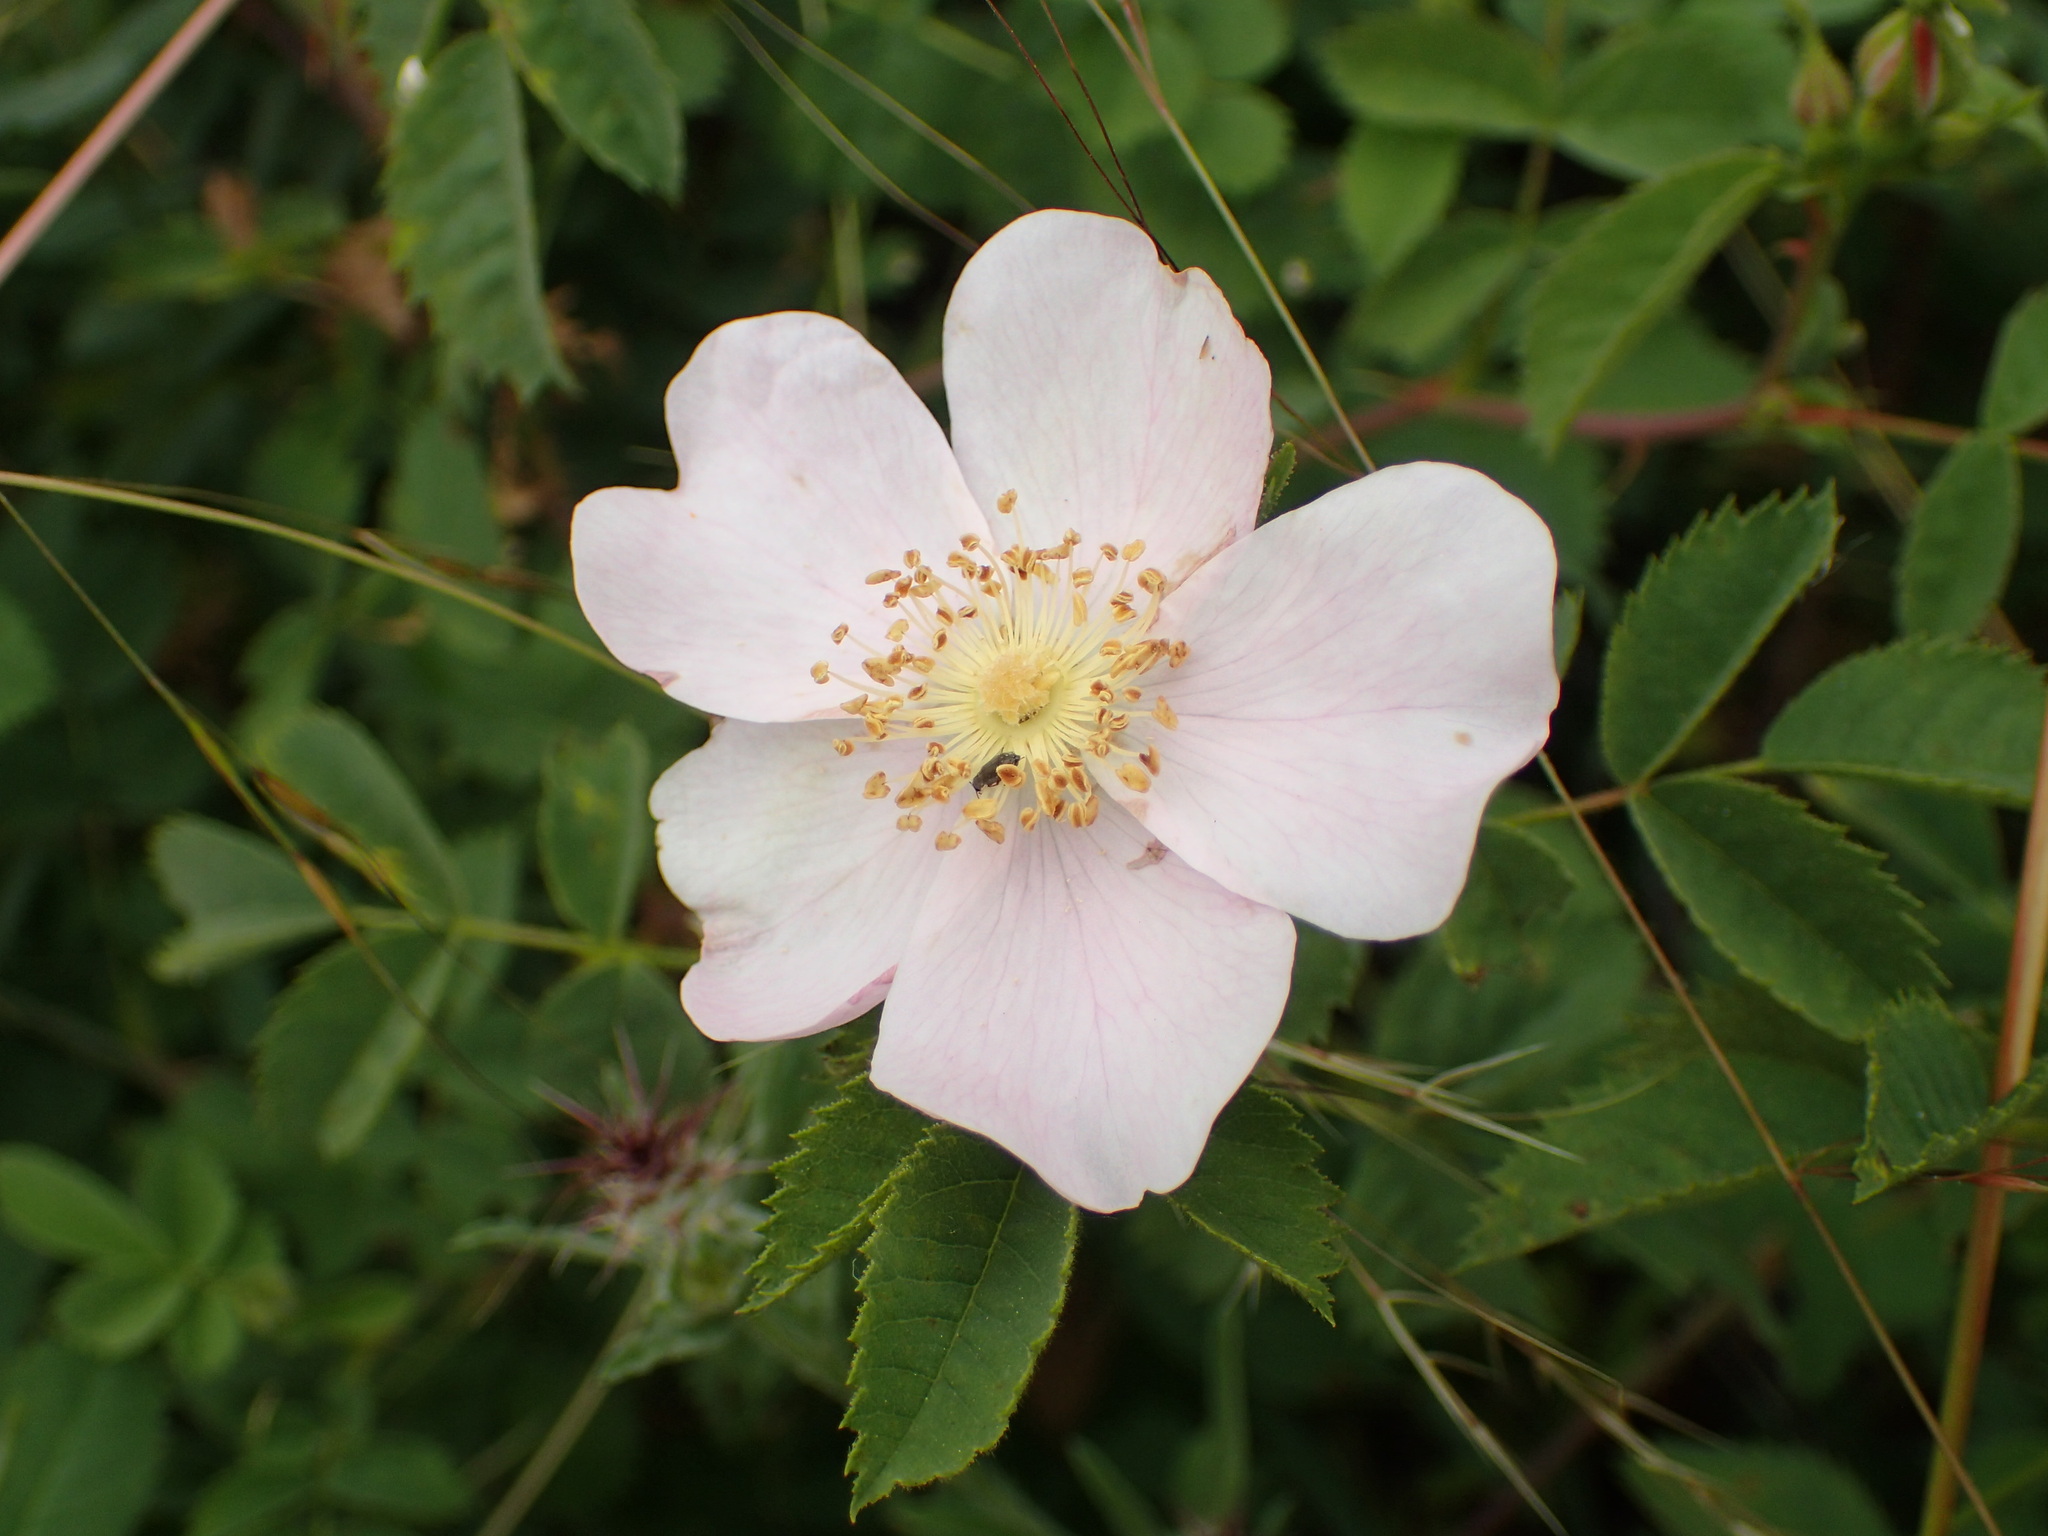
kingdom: Plantae
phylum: Tracheophyta
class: Magnoliopsida
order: Rosales
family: Rosaceae
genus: Rosa
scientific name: Rosa californica
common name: California rose
